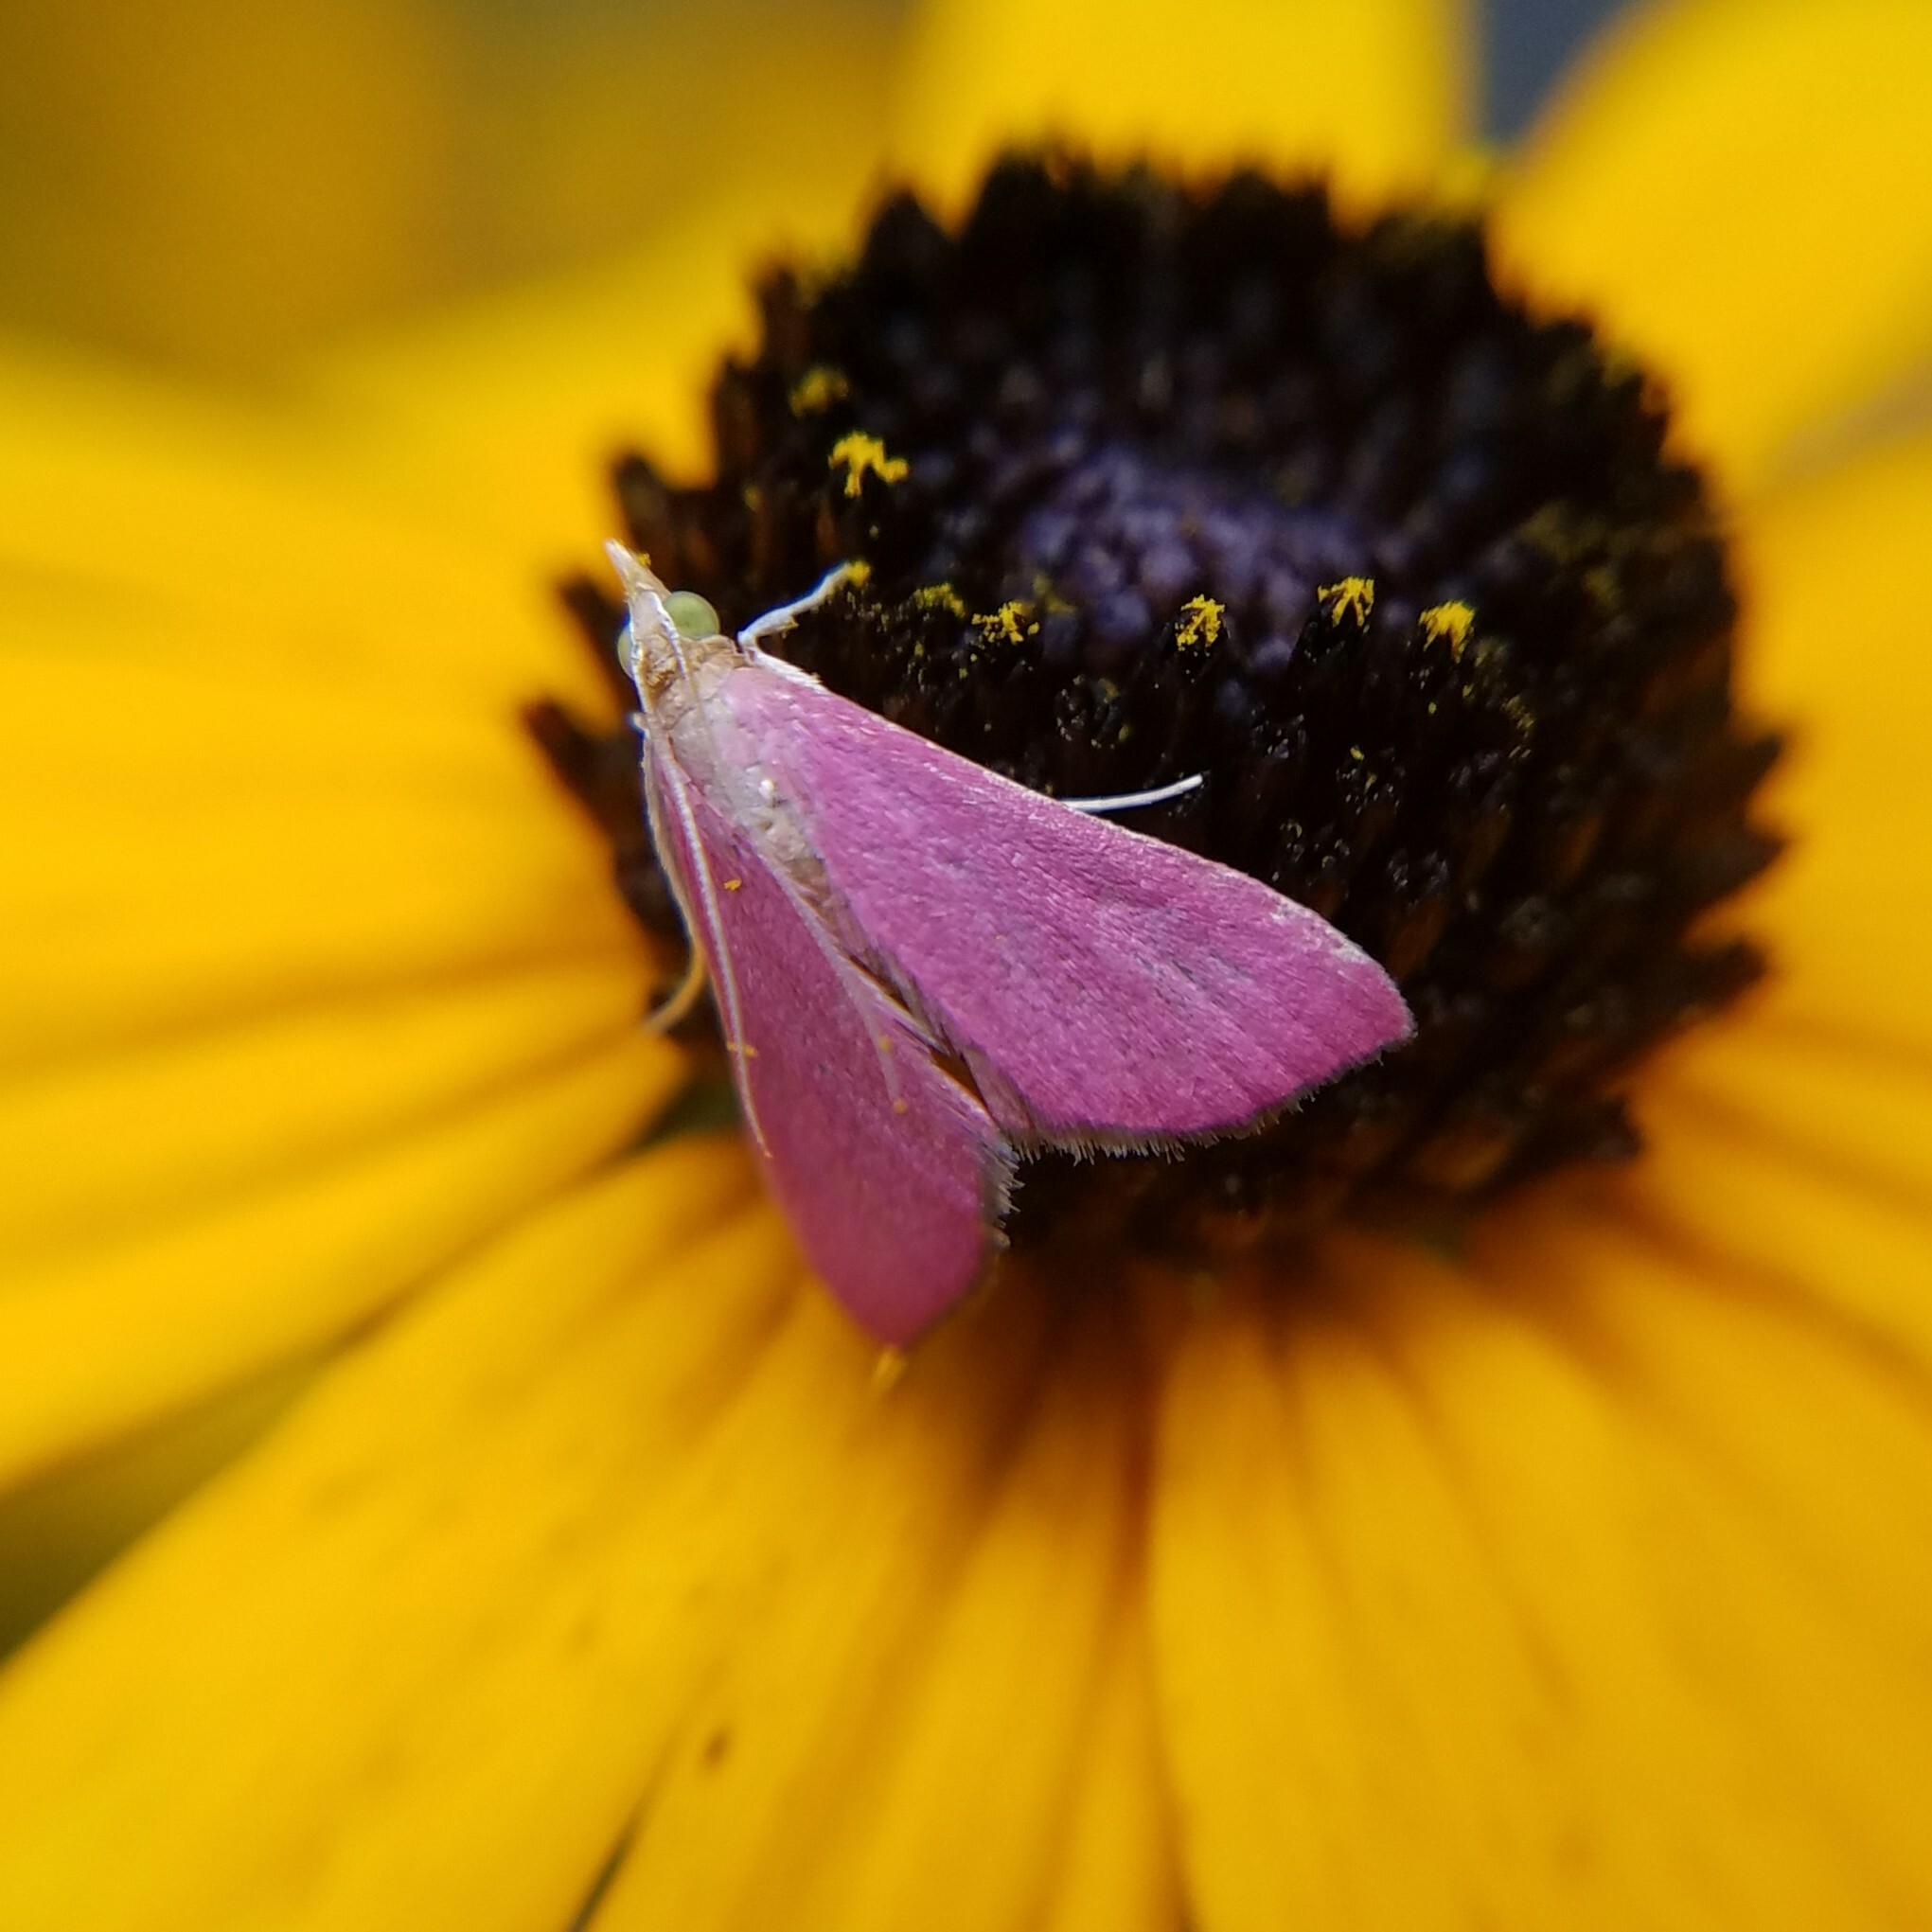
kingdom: Animalia
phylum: Arthropoda
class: Insecta
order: Lepidoptera
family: Crambidae
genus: Pyrausta
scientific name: Pyrausta inornatalis
